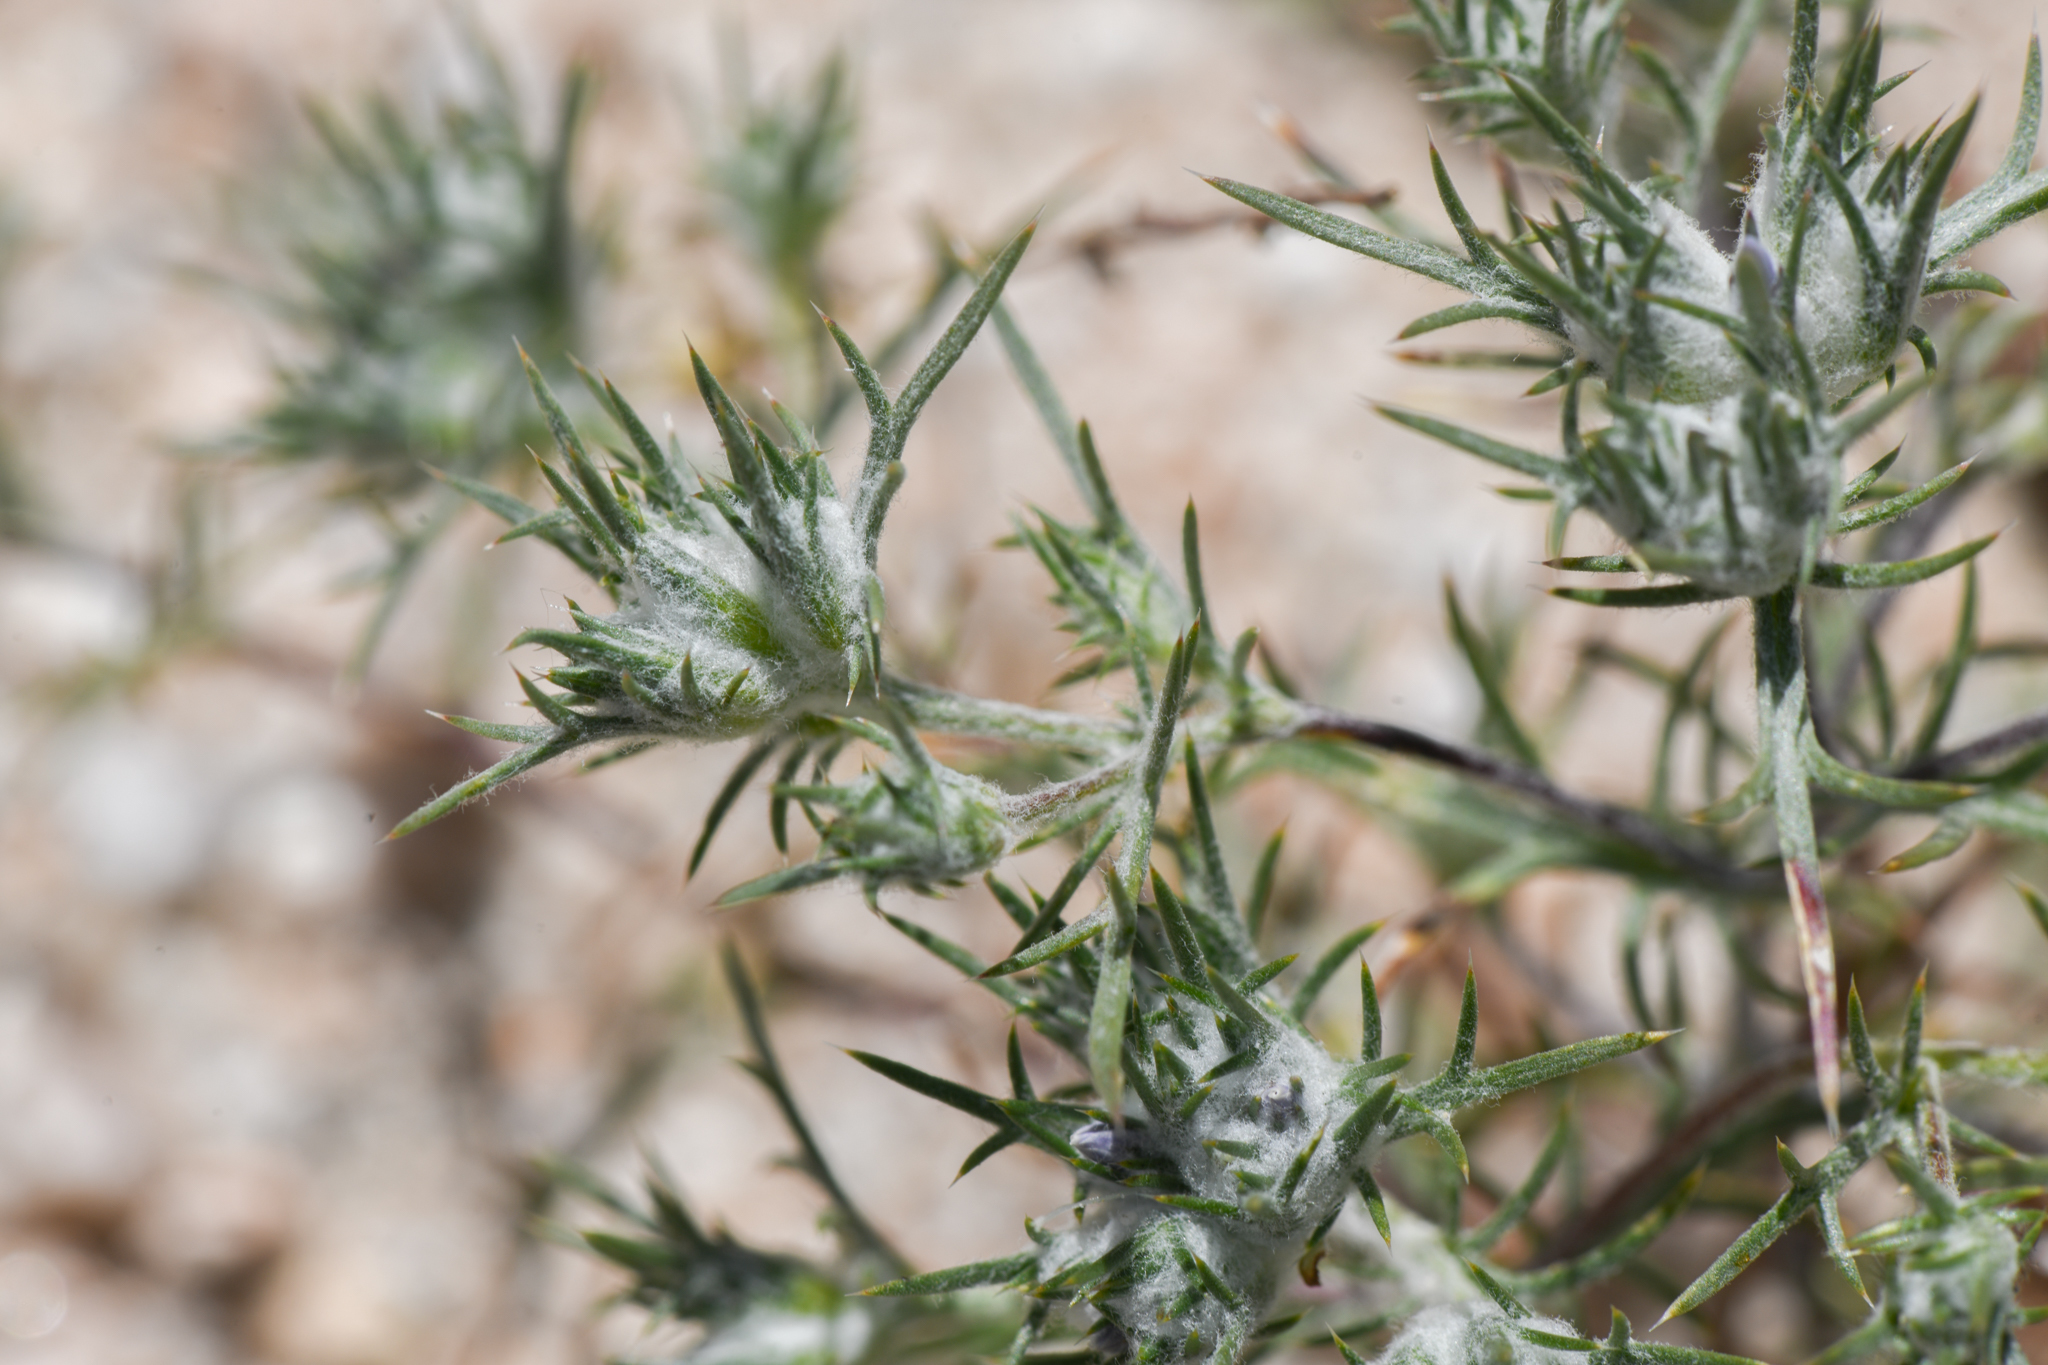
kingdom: Plantae
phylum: Tracheophyta
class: Magnoliopsida
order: Ericales
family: Polemoniaceae
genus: Eriastrum
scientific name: Eriastrum pluriflorum
